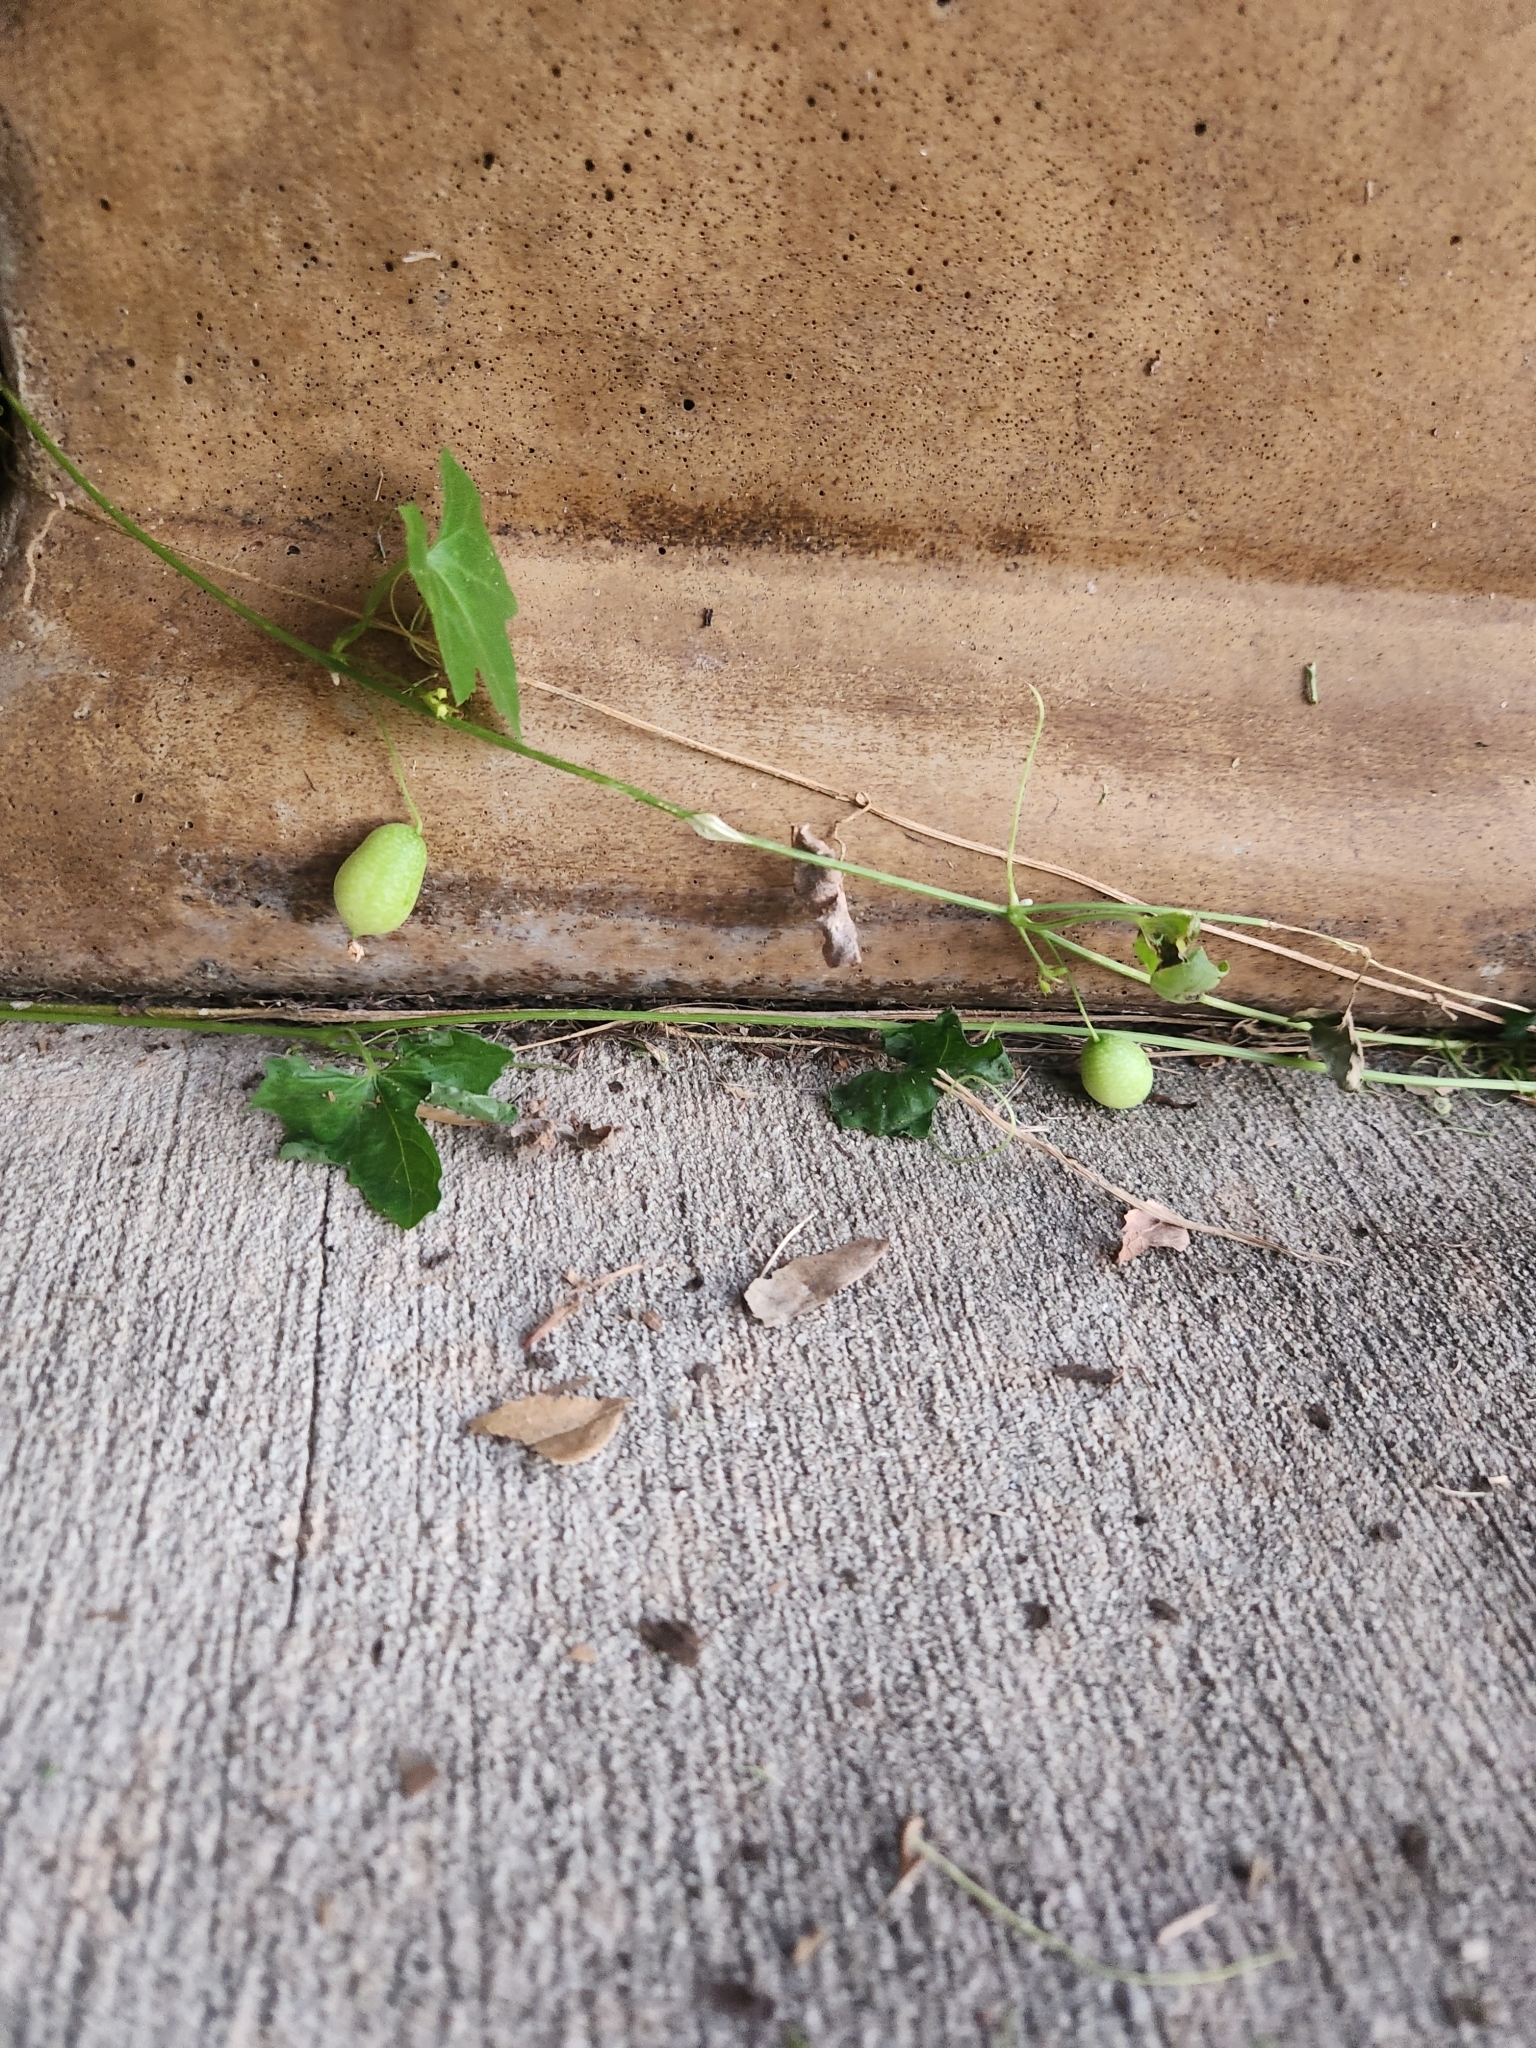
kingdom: Plantae
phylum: Tracheophyta
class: Magnoliopsida
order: Cucurbitales
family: Cucurbitaceae
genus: Melothria
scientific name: Melothria pendula
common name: Creeping-cucumber
